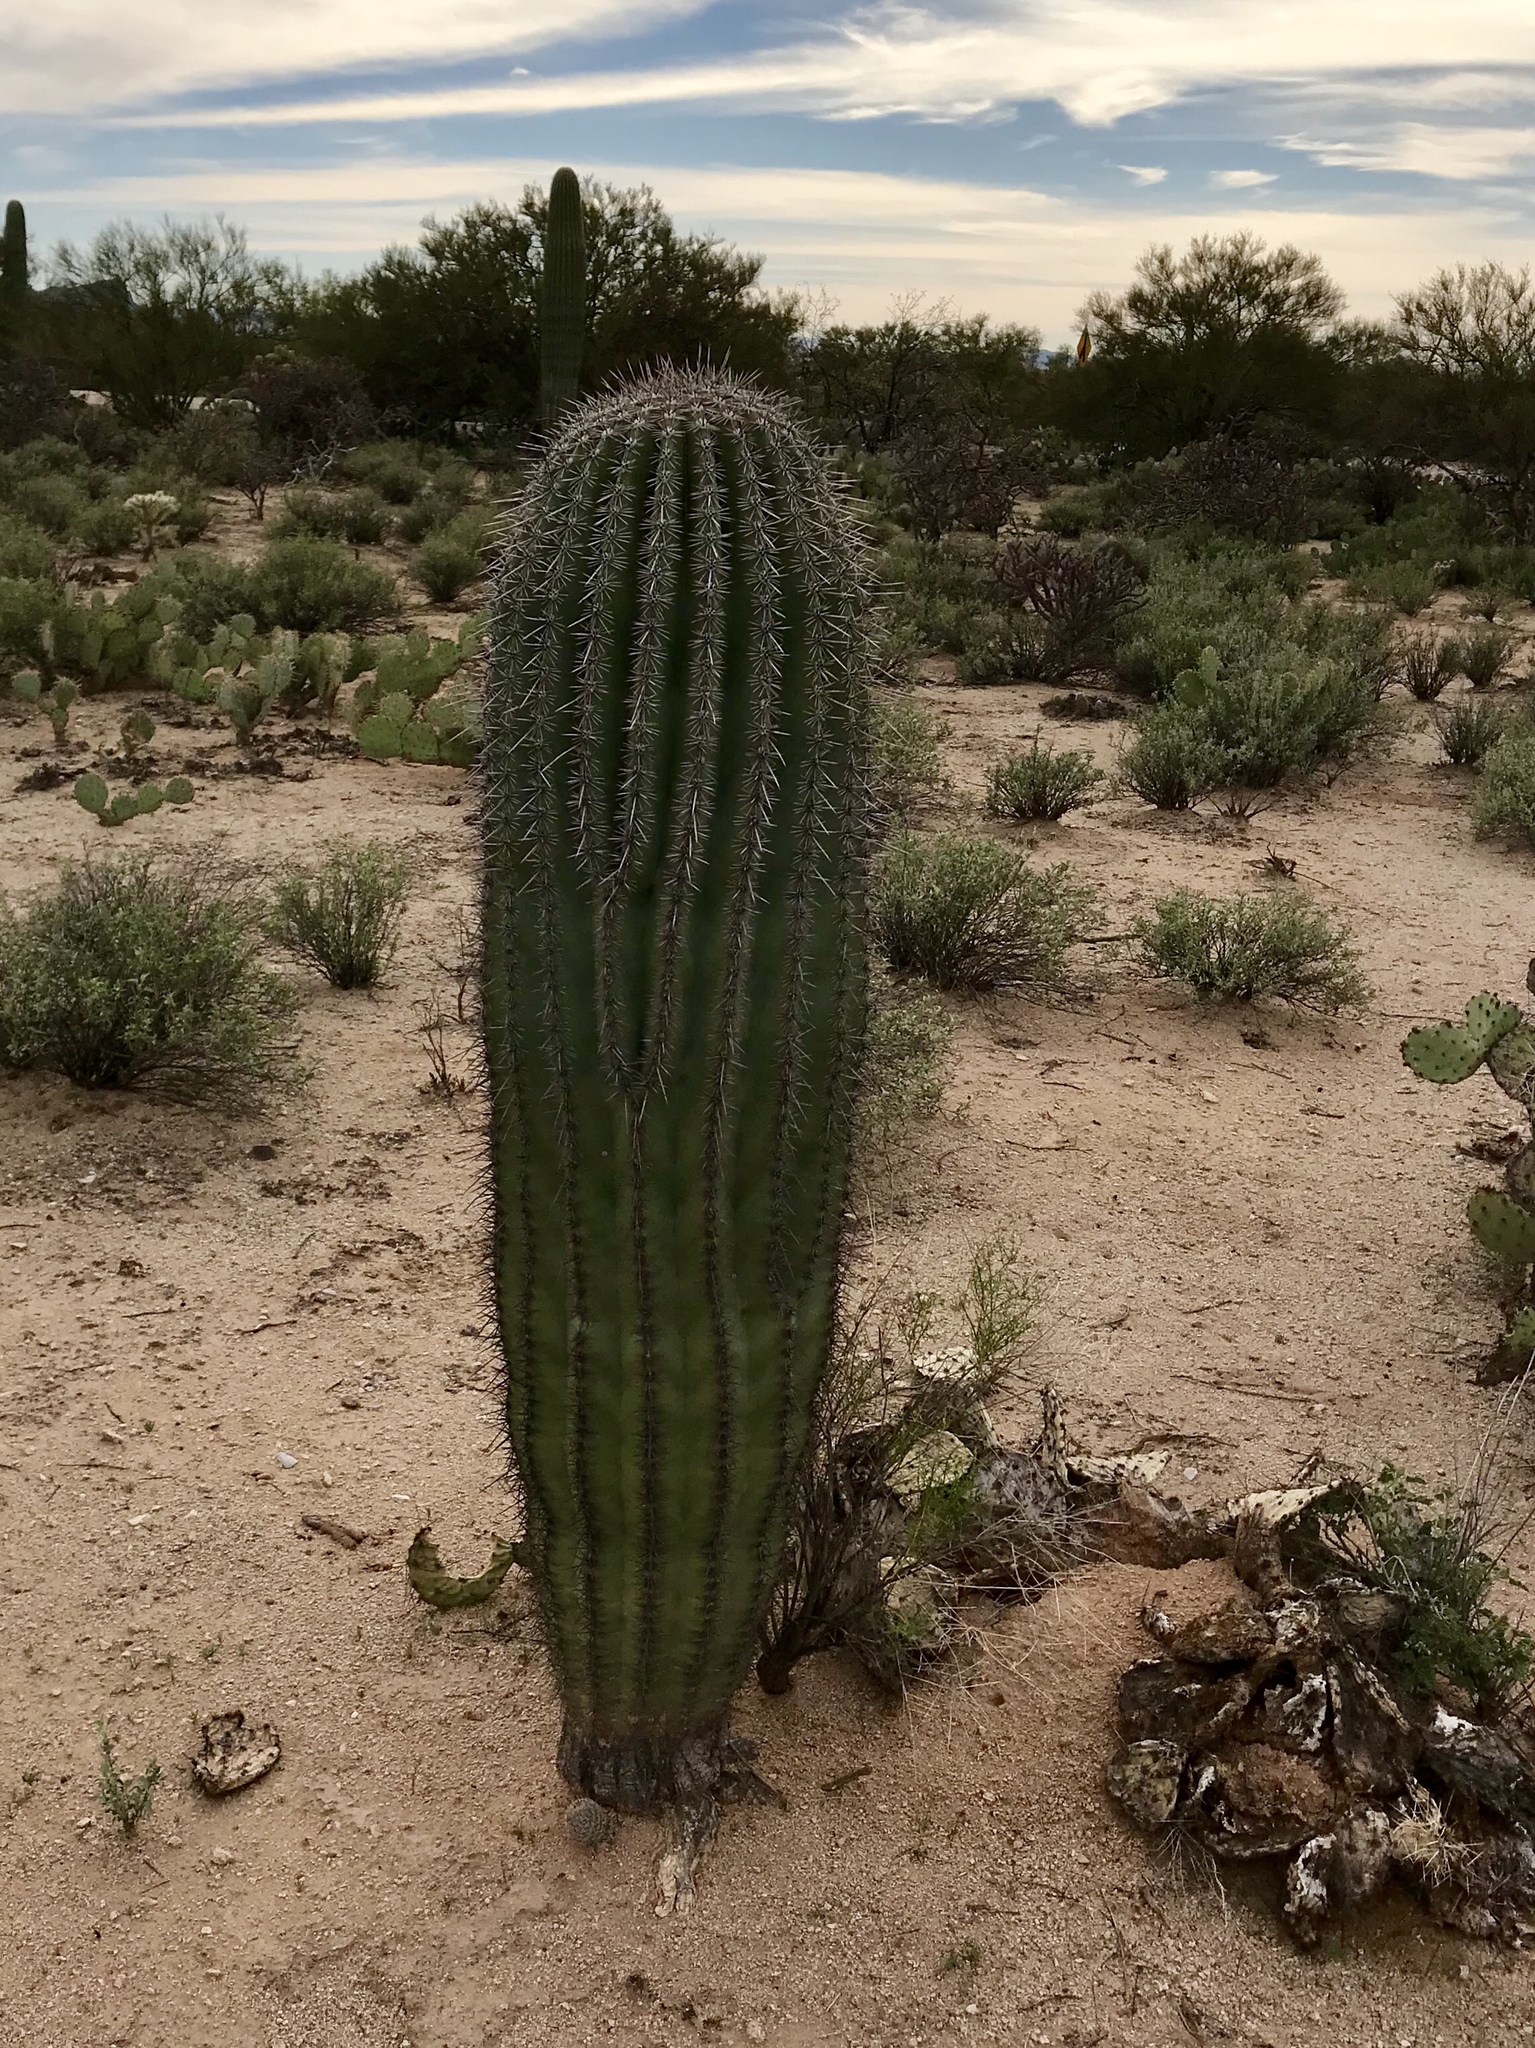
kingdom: Plantae
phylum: Tracheophyta
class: Magnoliopsida
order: Caryophyllales
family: Cactaceae
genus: Carnegiea
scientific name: Carnegiea gigantea
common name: Saguaro
